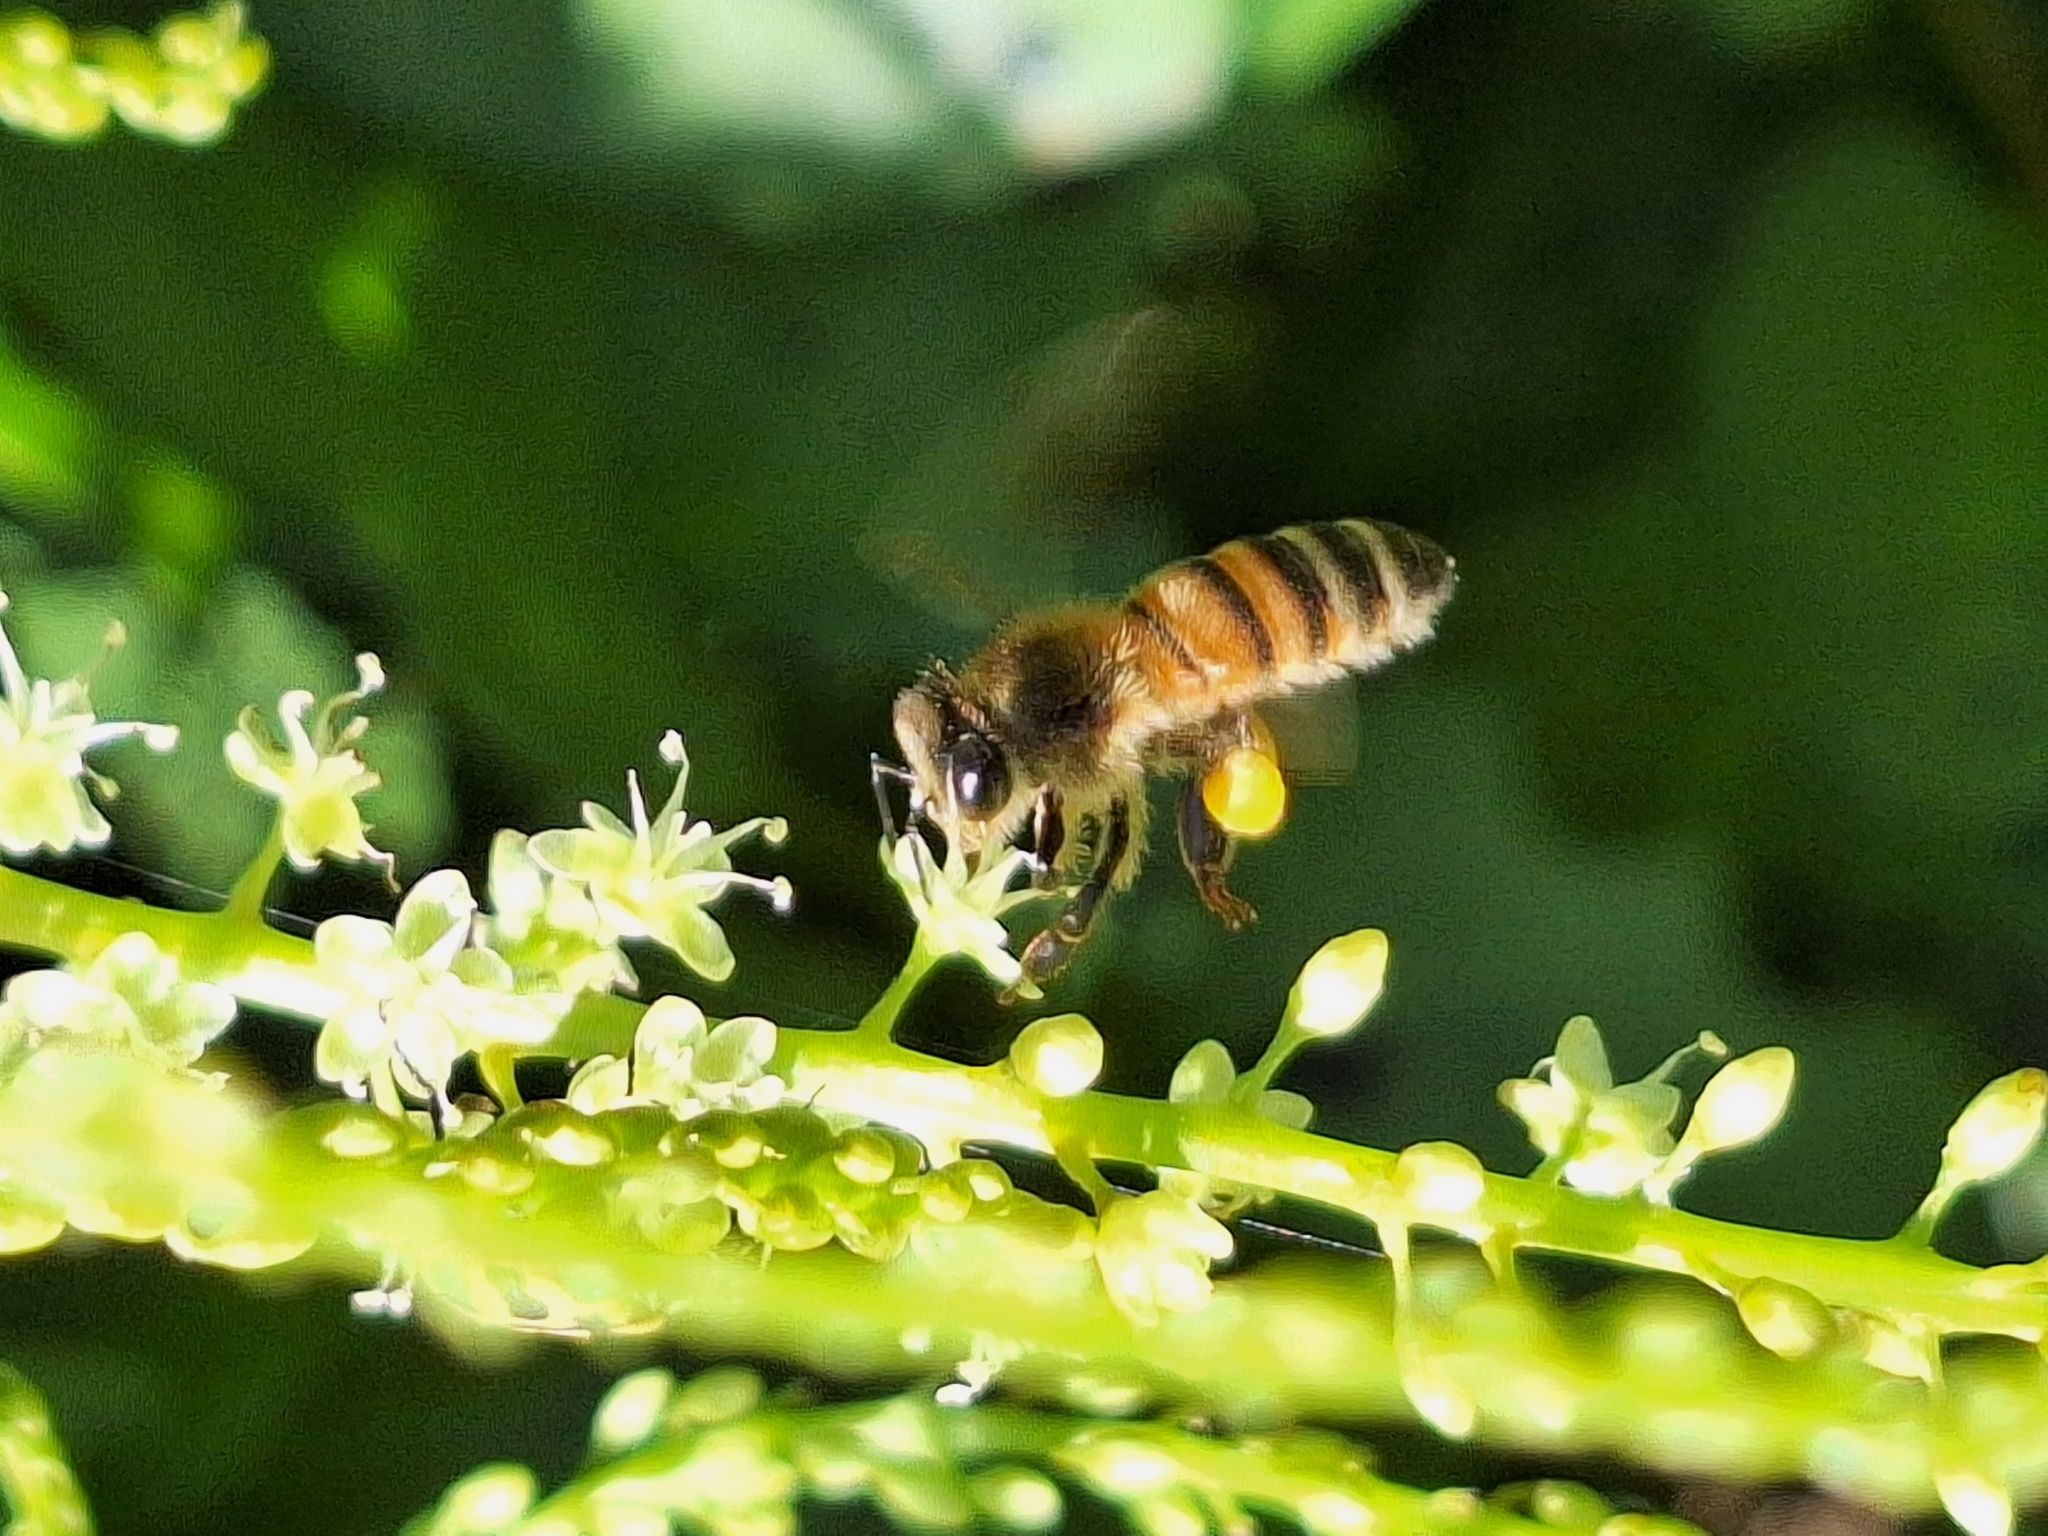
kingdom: Animalia
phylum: Arthropoda
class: Insecta
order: Hymenoptera
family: Apidae
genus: Apis
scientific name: Apis mellifera
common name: Honey bee
